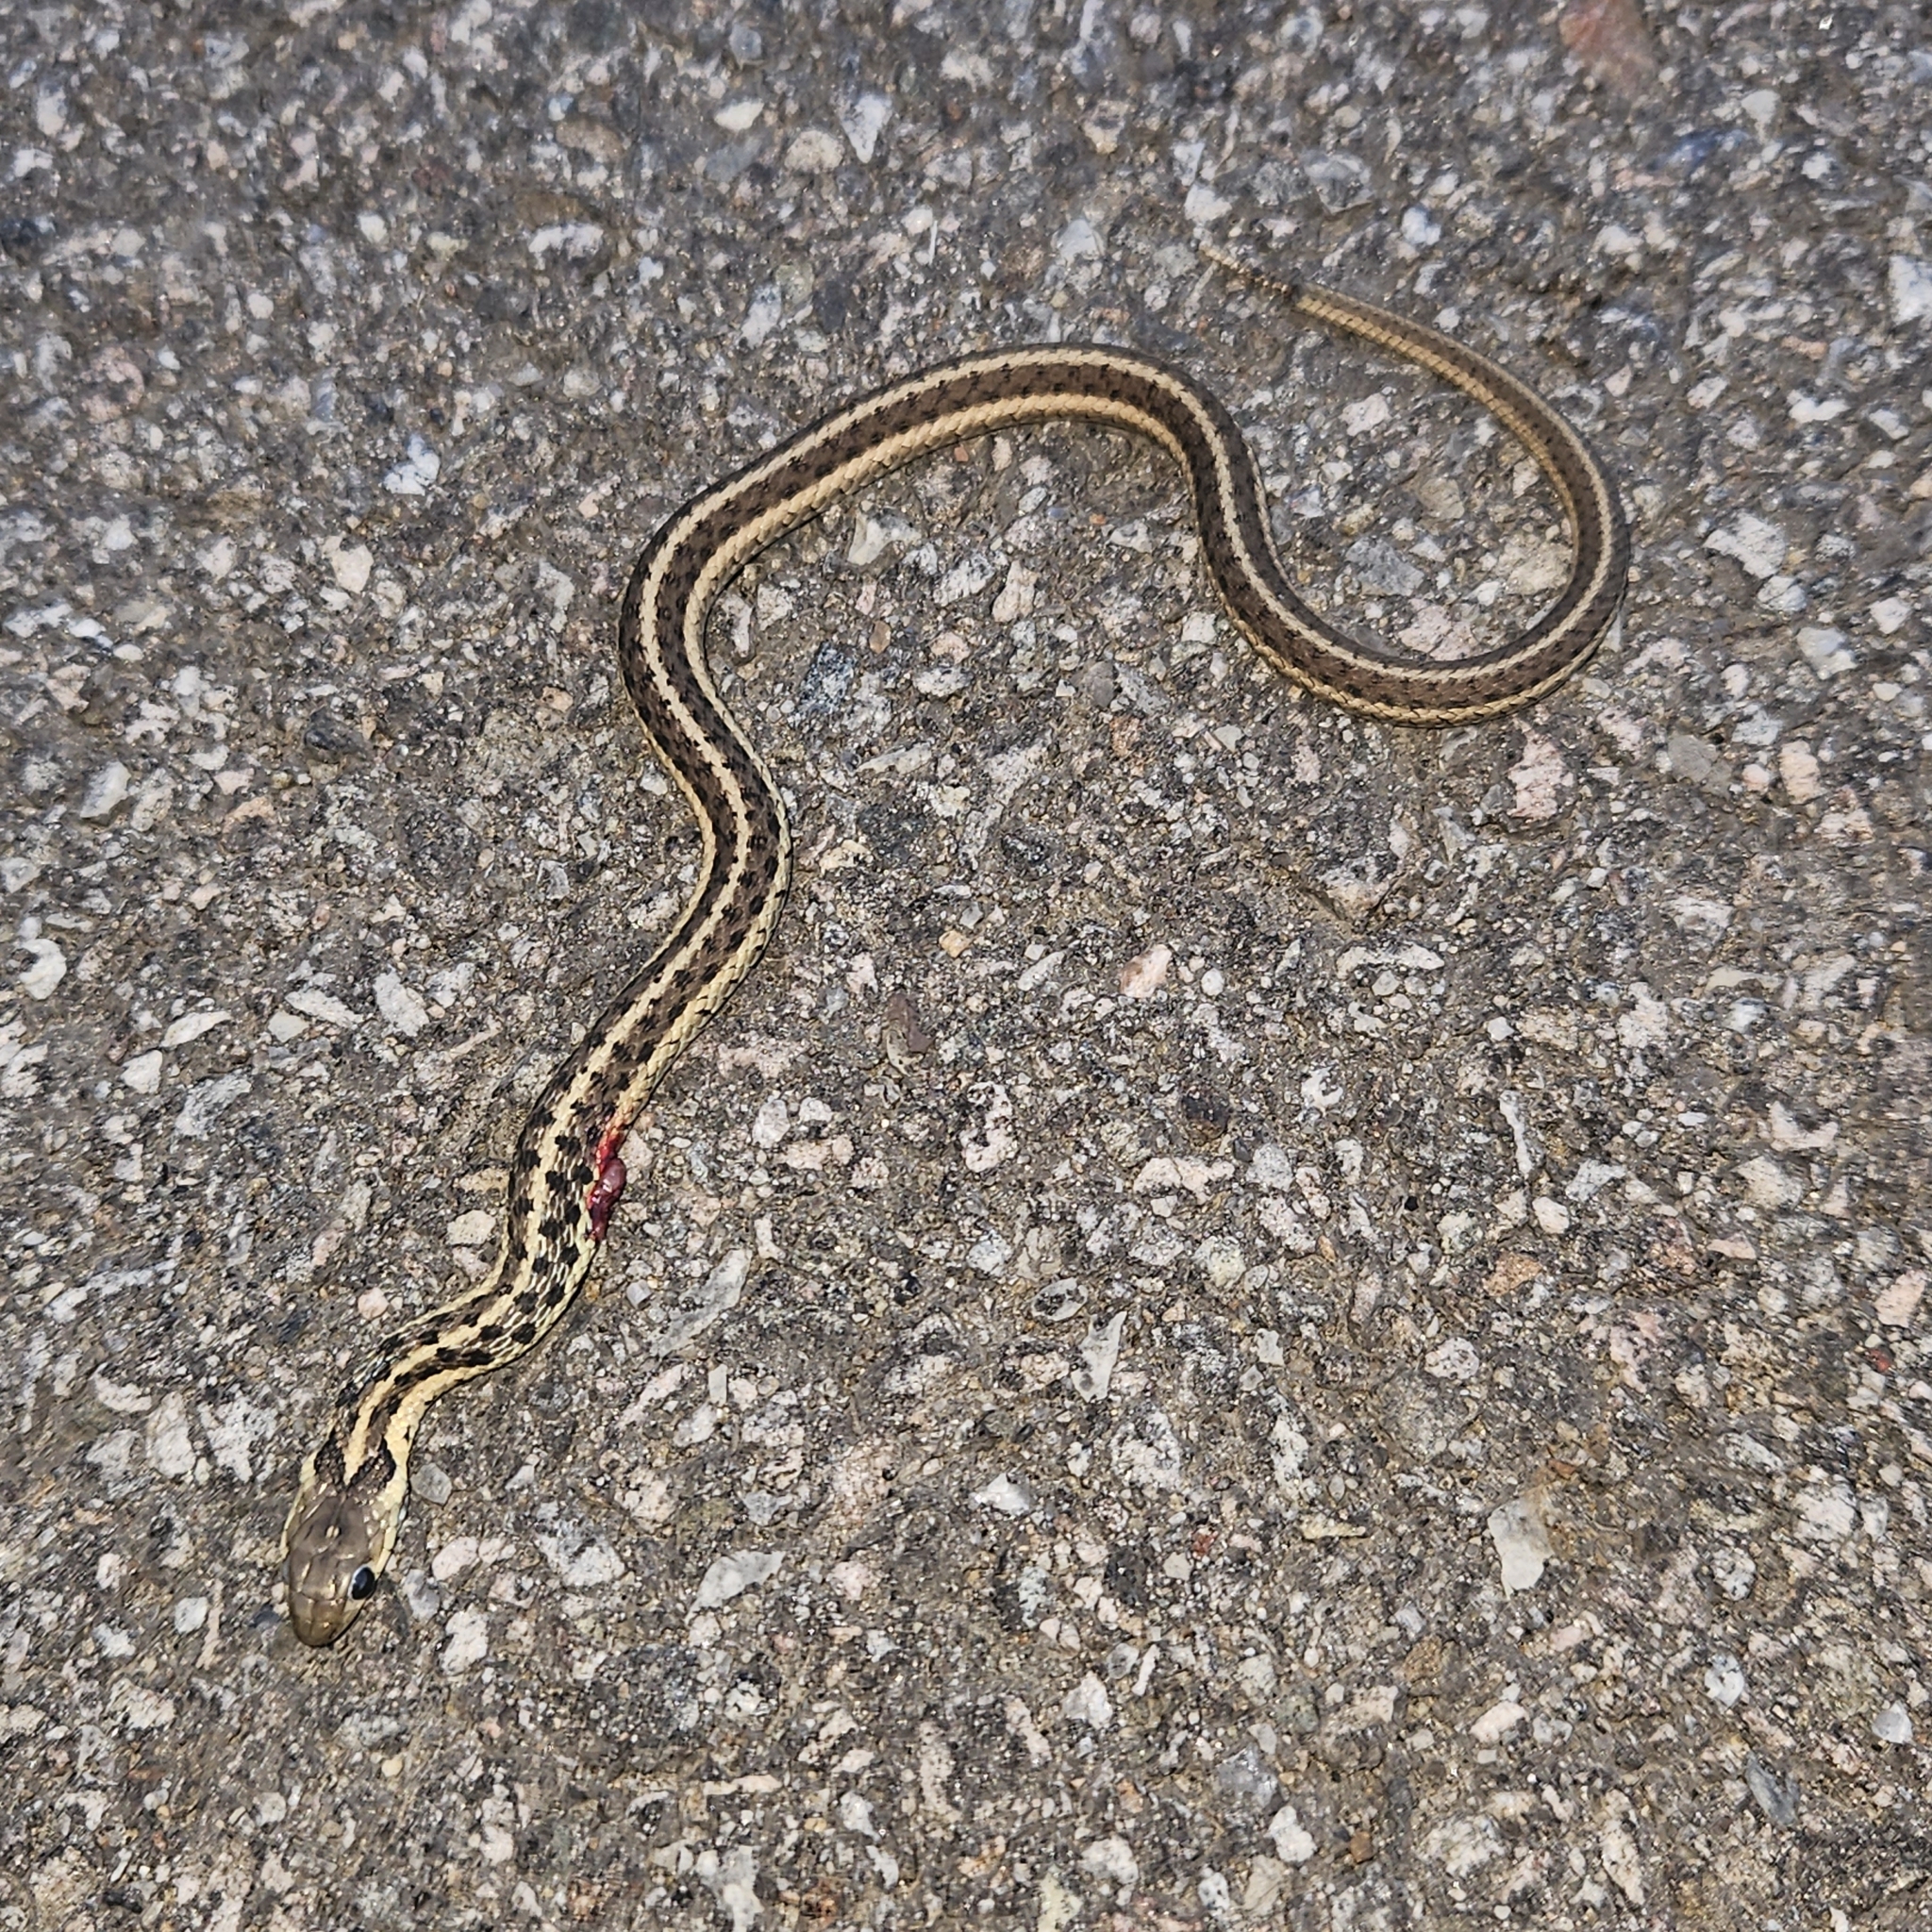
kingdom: Animalia
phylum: Chordata
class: Squamata
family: Colubridae
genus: Thamnophis
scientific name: Thamnophis sirtalis
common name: Common garter snake
